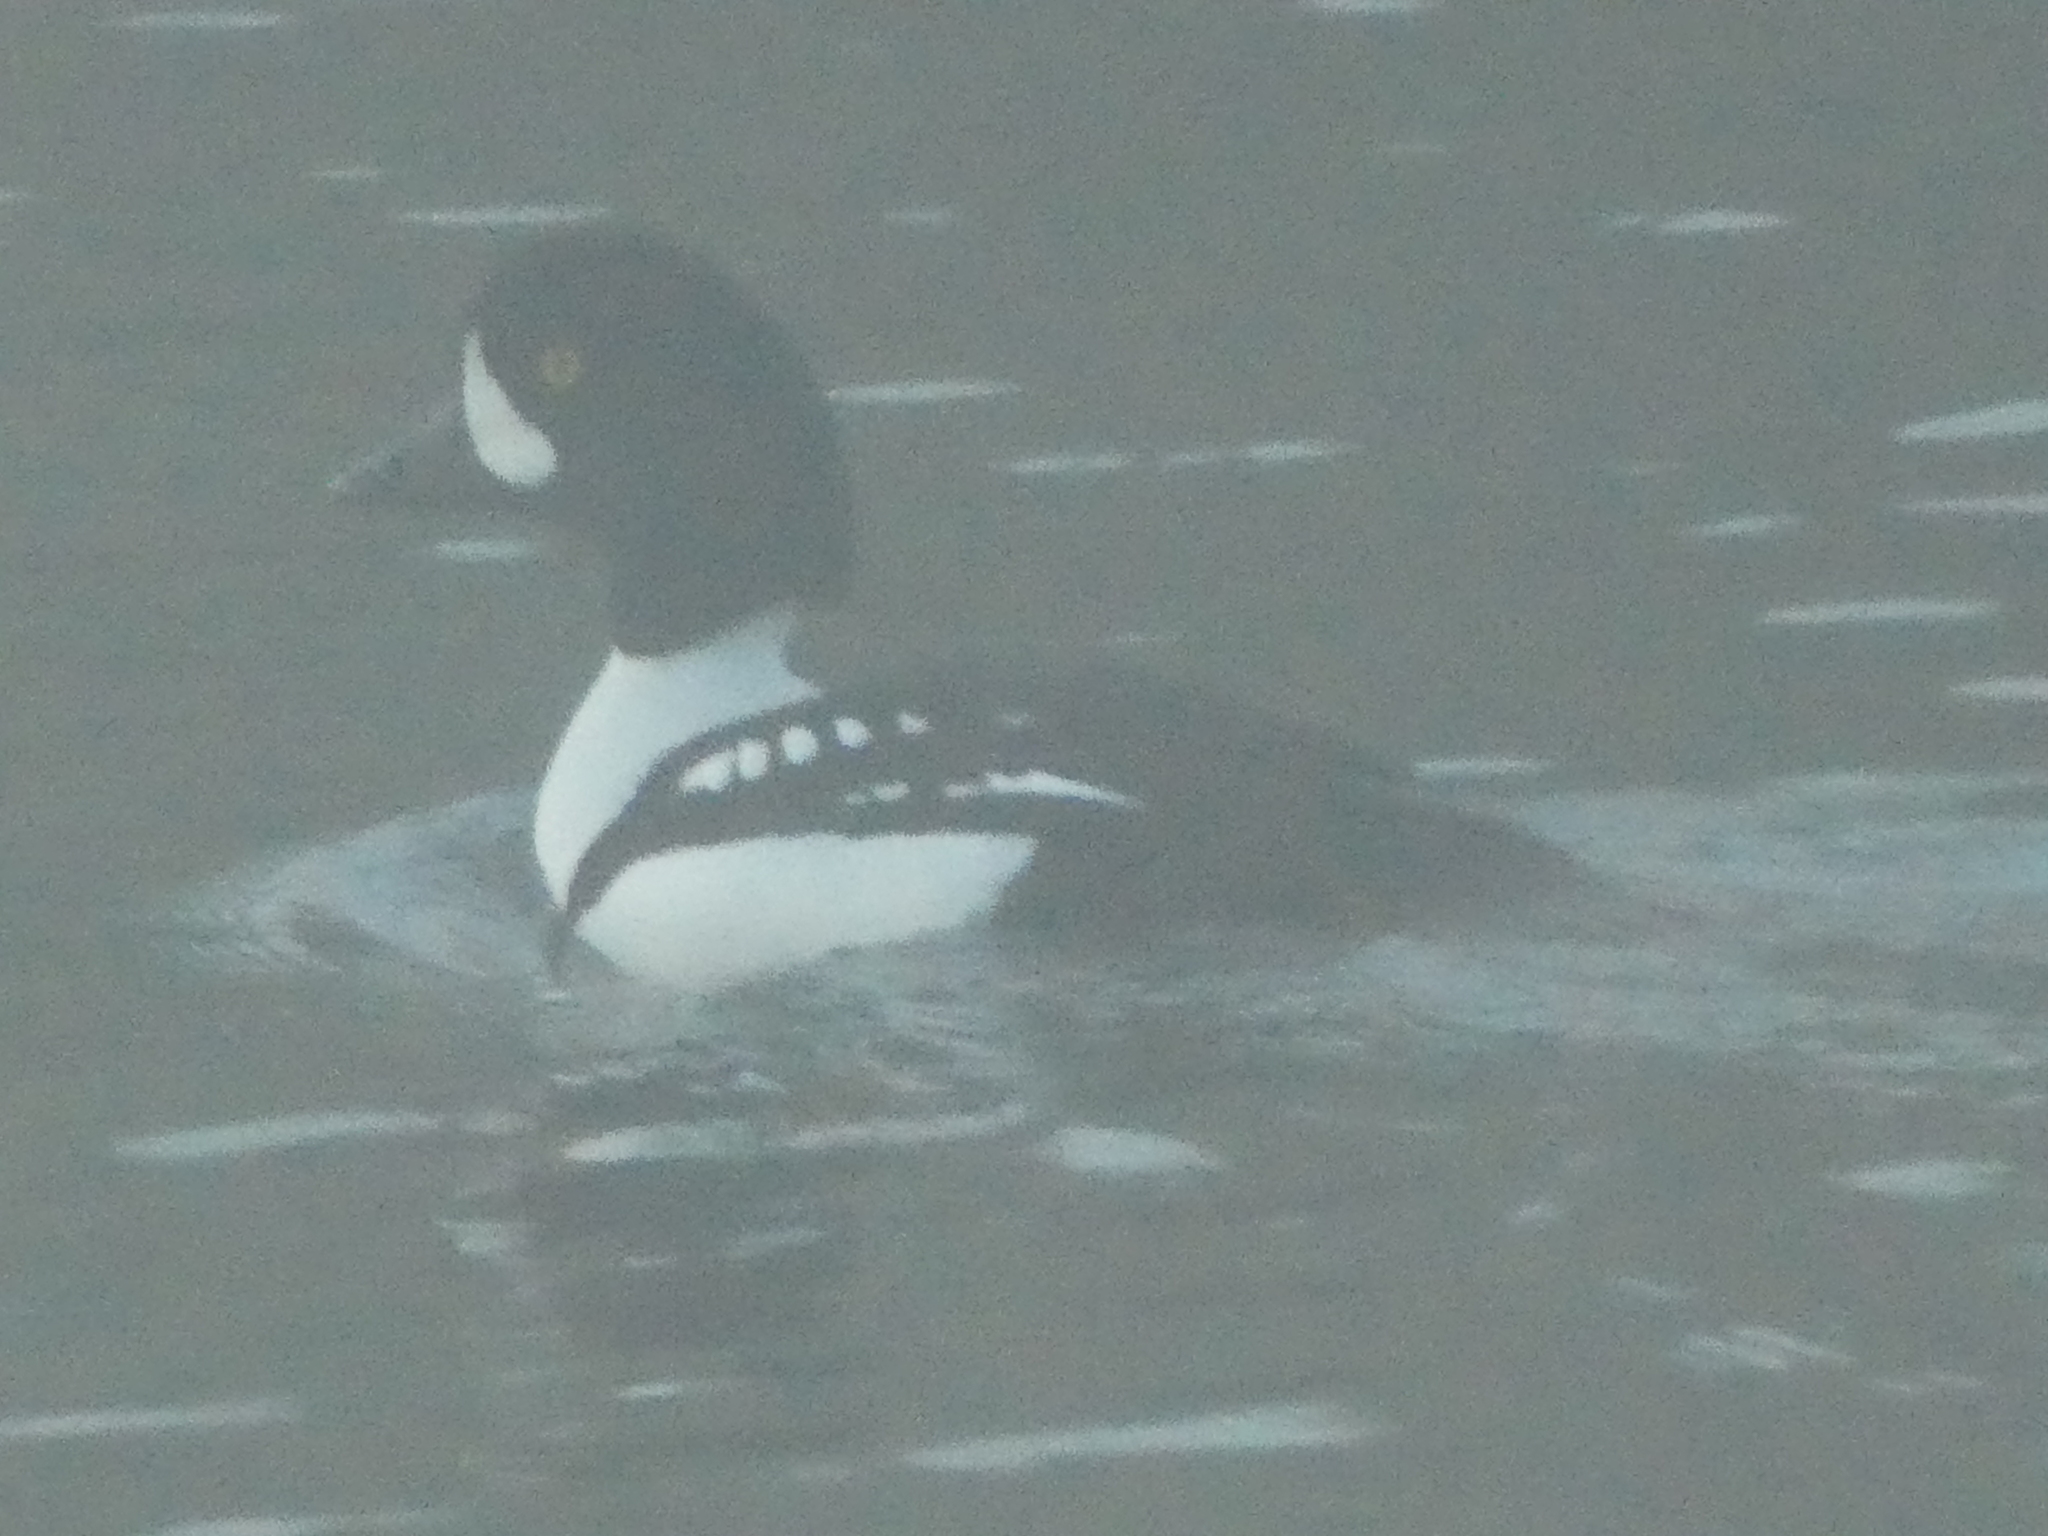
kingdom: Animalia
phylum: Chordata
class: Aves
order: Anseriformes
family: Anatidae
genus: Bucephala
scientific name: Bucephala islandica
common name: Barrow's goldeneye
